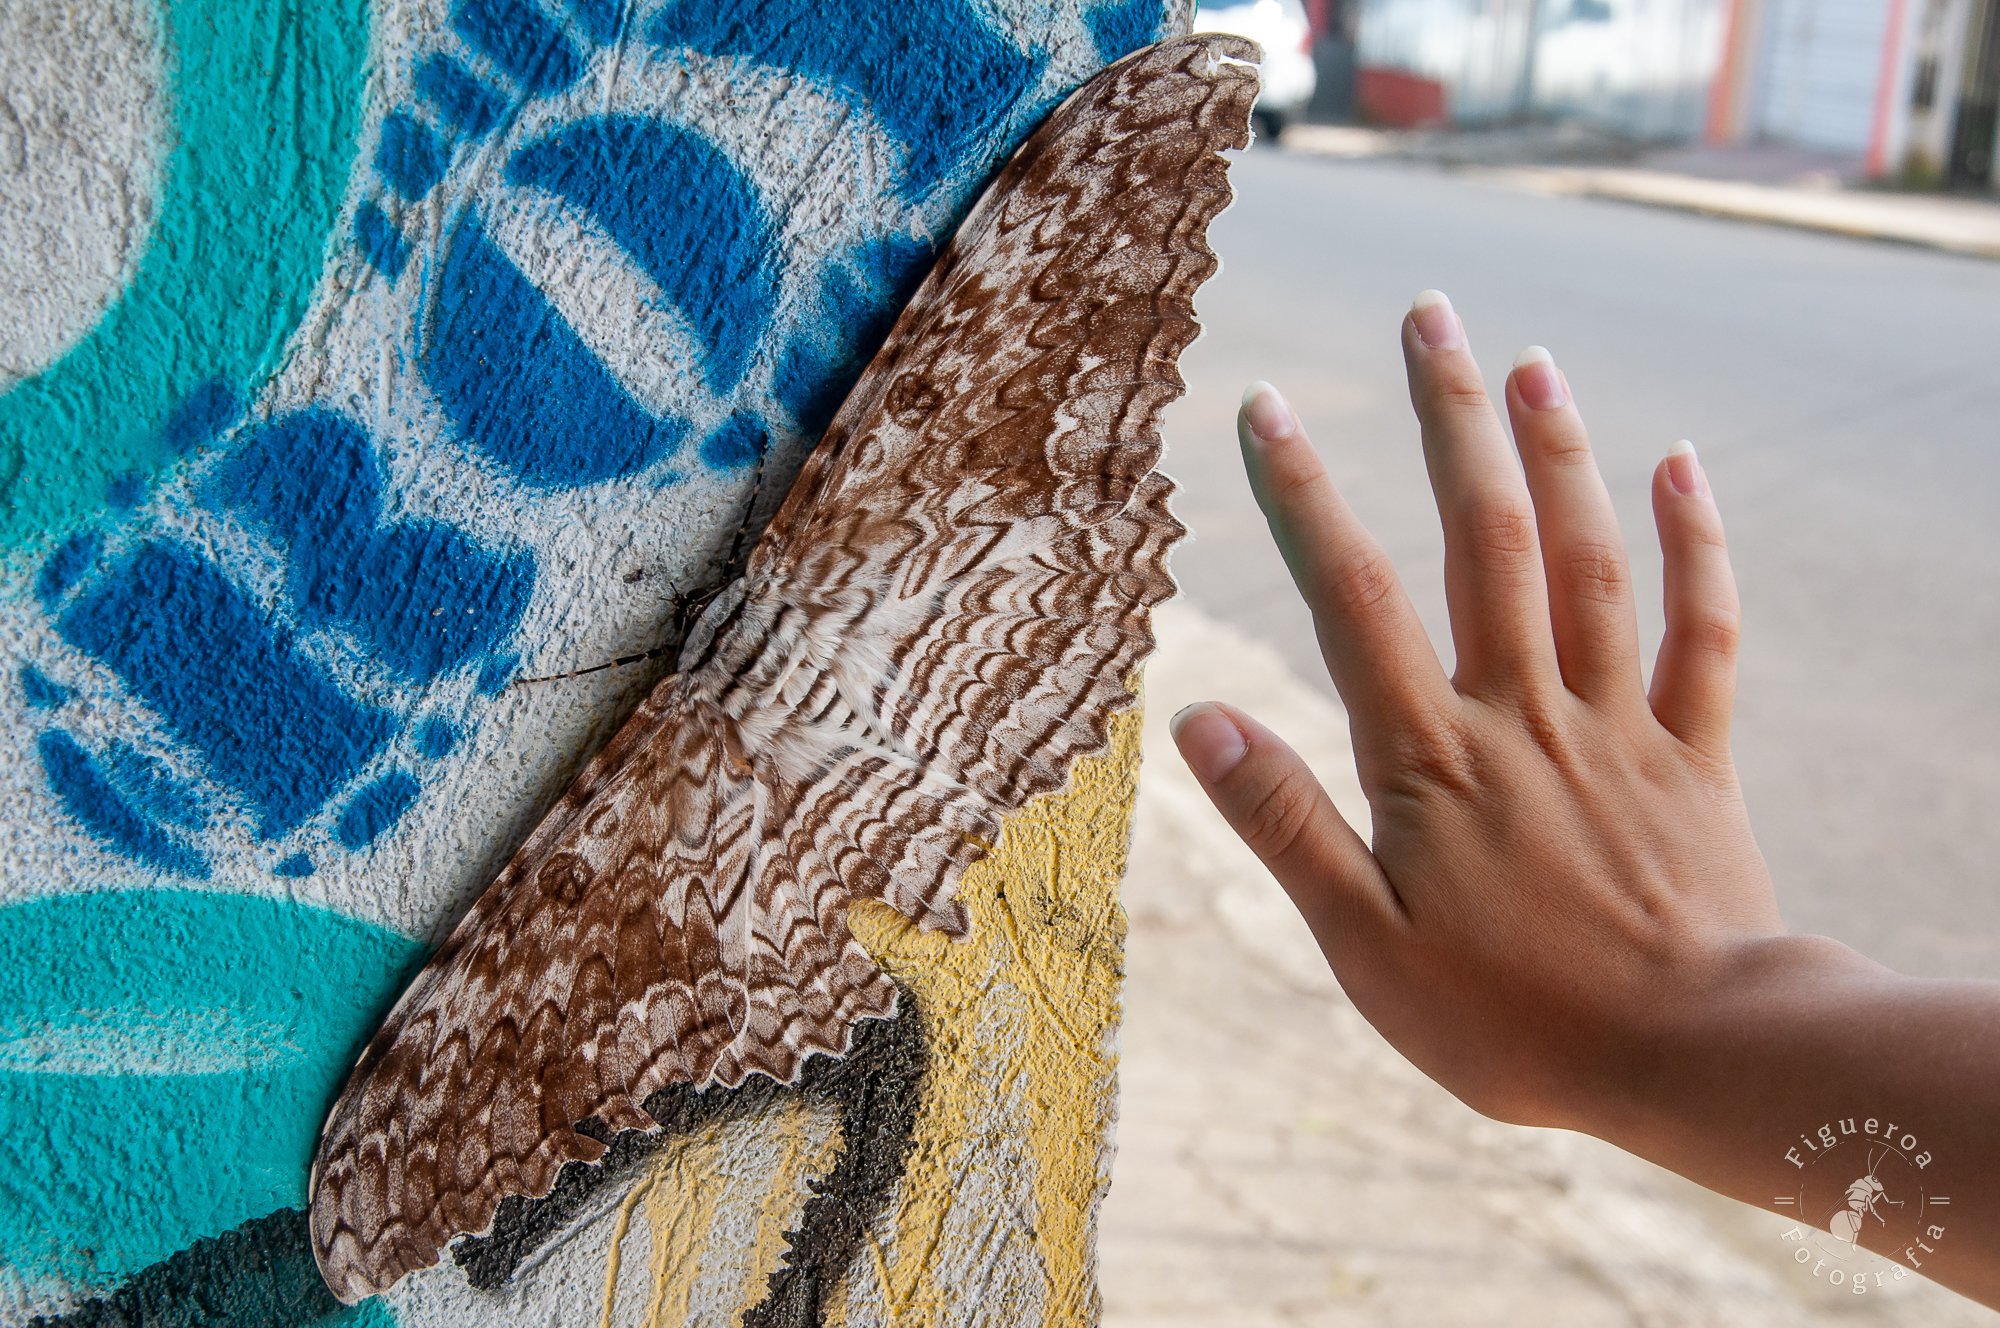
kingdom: Animalia
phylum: Arthropoda
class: Insecta
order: Lepidoptera
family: Erebidae
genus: Thysania
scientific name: Thysania agrippina
